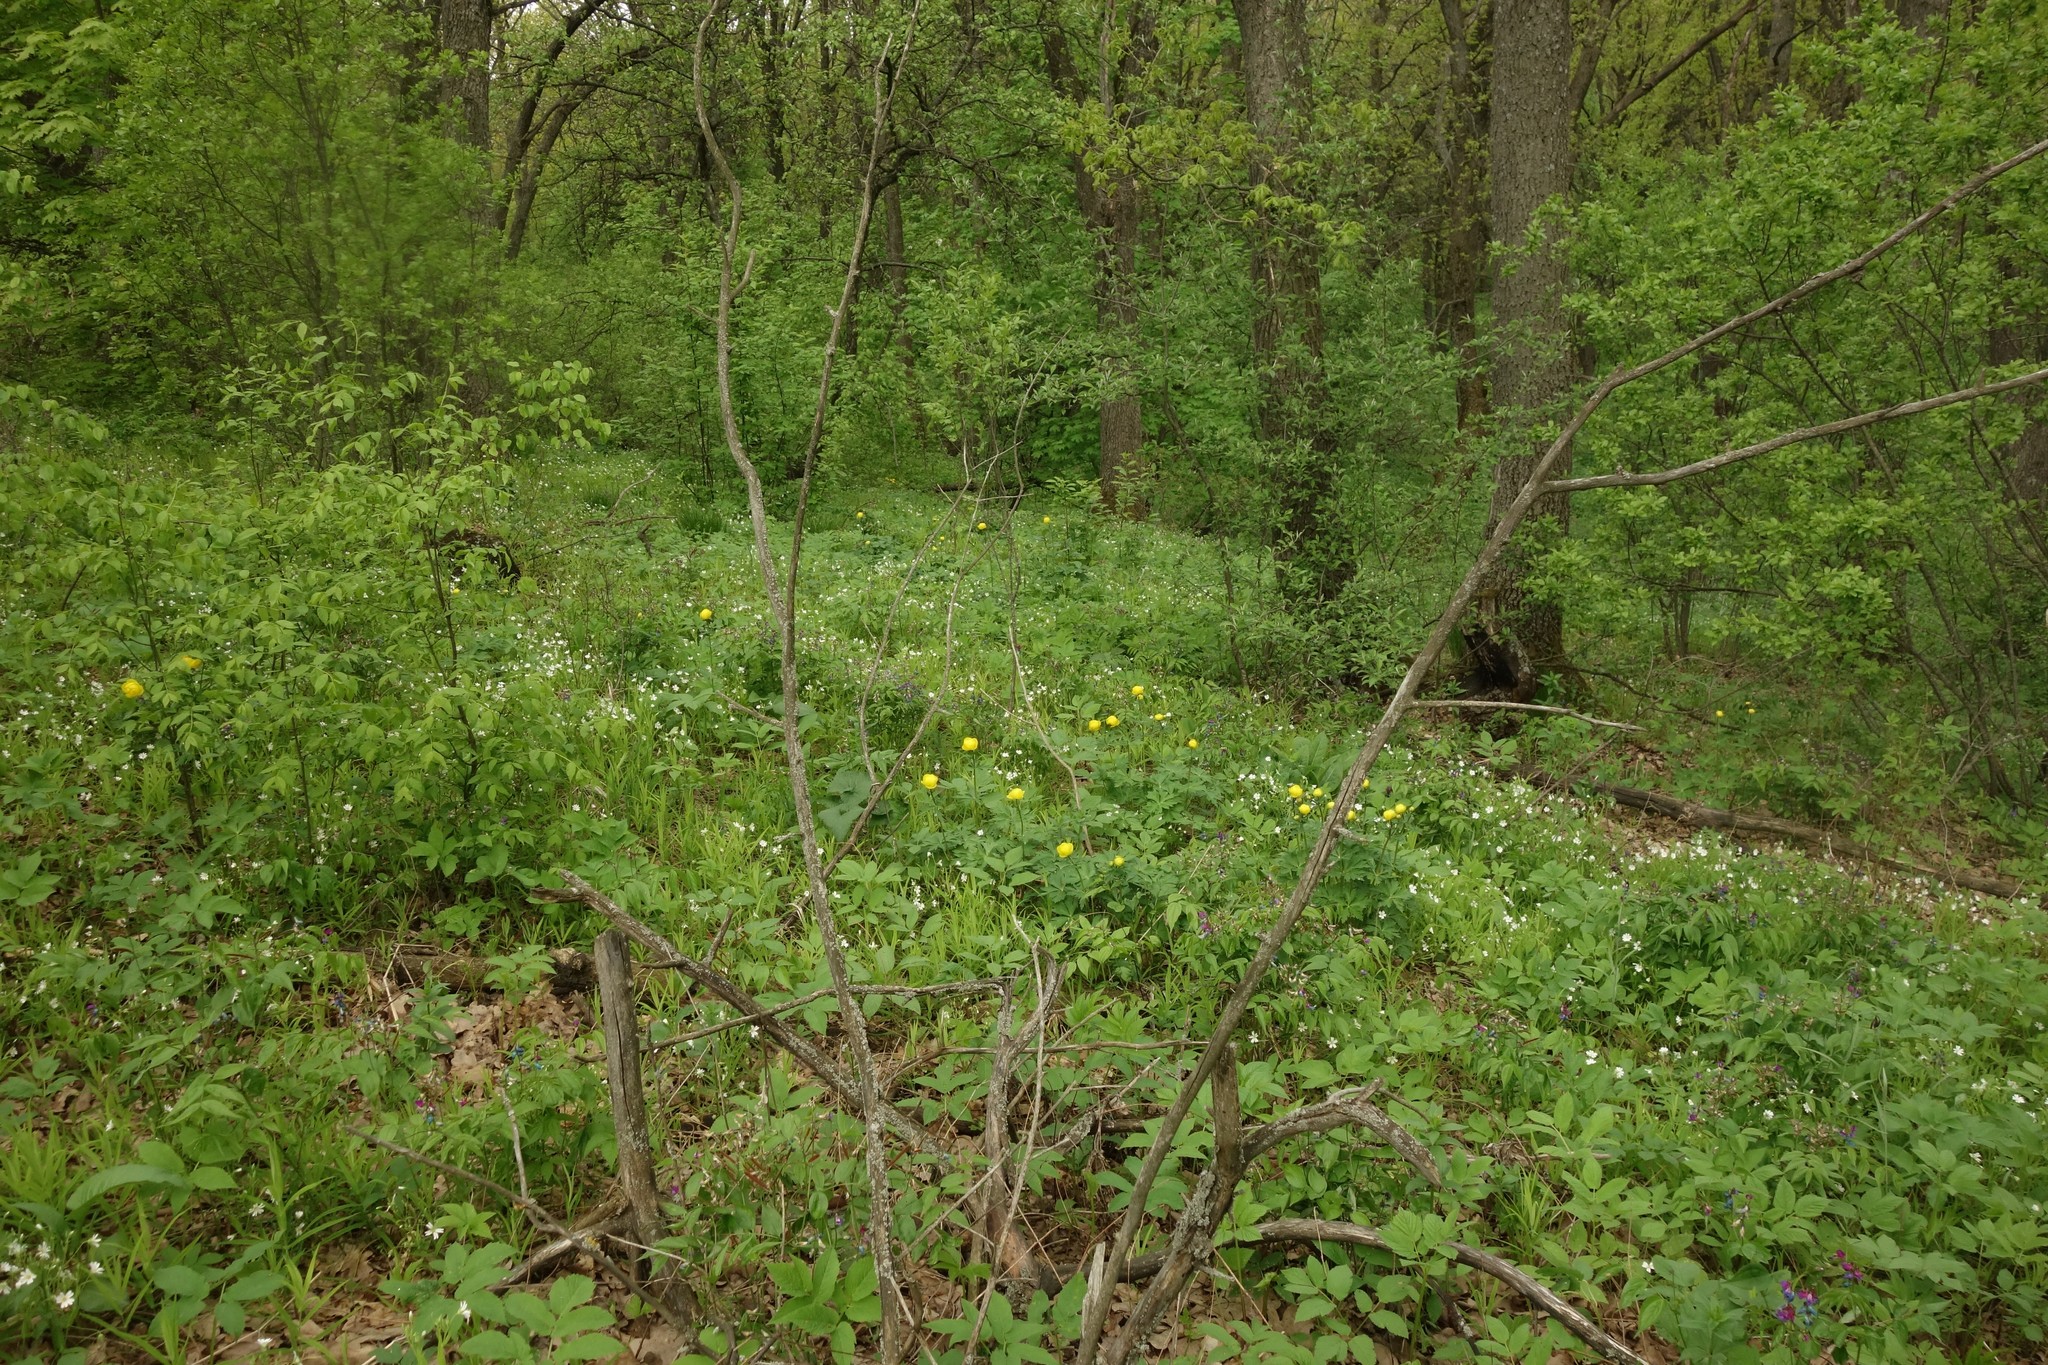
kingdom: Plantae
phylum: Tracheophyta
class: Magnoliopsida
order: Ranunculales
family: Ranunculaceae
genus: Trollius
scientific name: Trollius europaeus
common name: European globeflower
